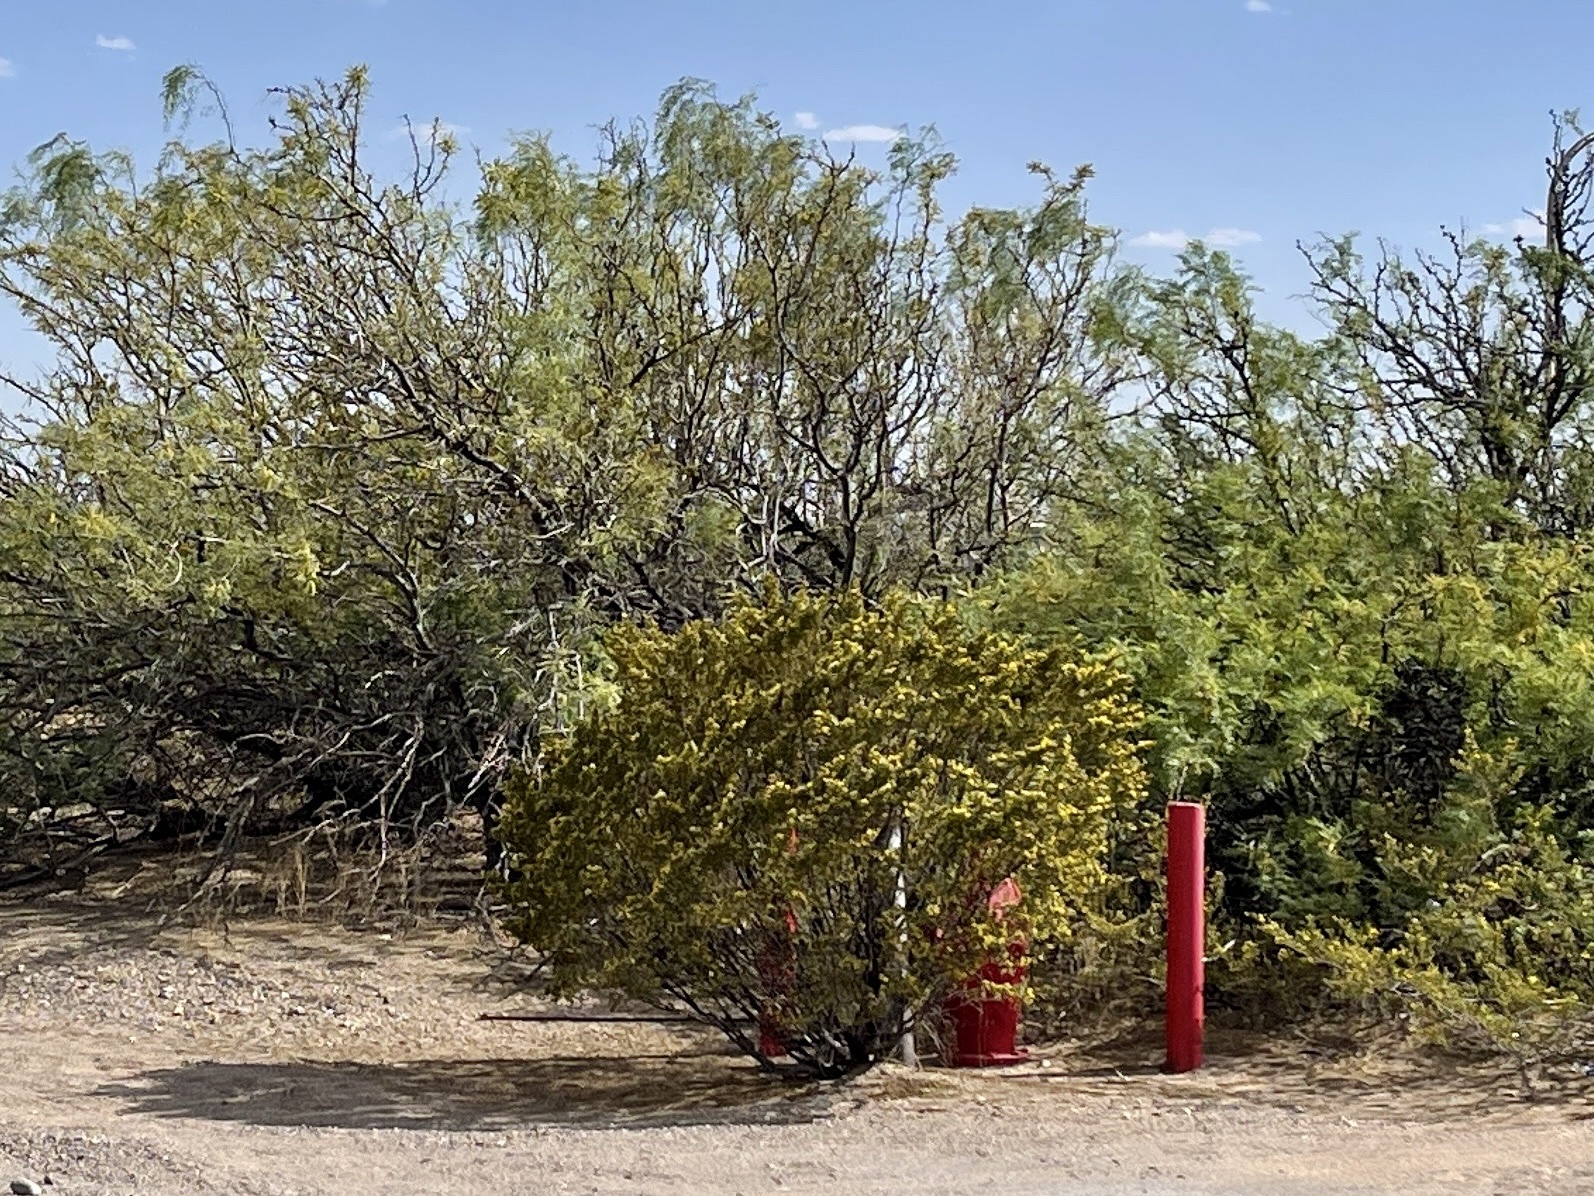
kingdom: Plantae
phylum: Tracheophyta
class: Magnoliopsida
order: Zygophyllales
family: Zygophyllaceae
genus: Larrea
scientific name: Larrea tridentata
